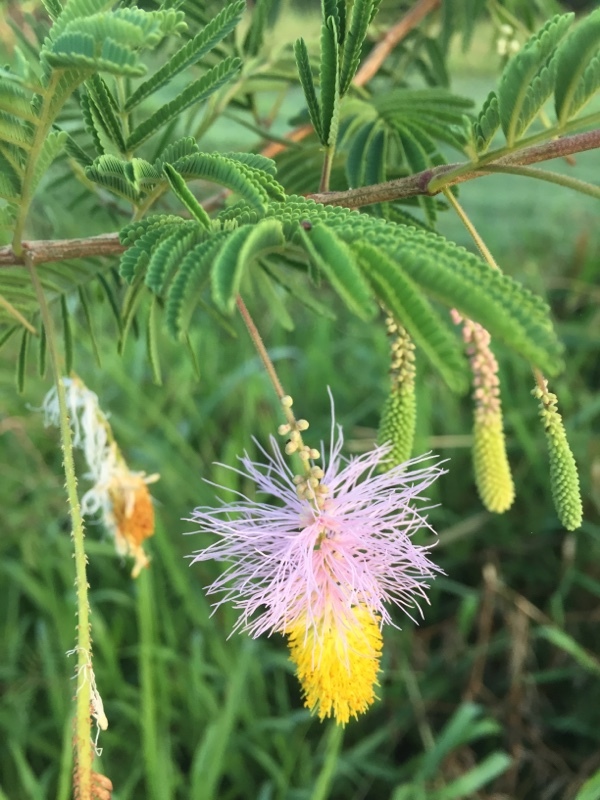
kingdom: Plantae
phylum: Tracheophyta
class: Magnoliopsida
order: Fabales
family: Fabaceae
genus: Dichrostachys
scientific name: Dichrostachys cinerea
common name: Sicklebush
